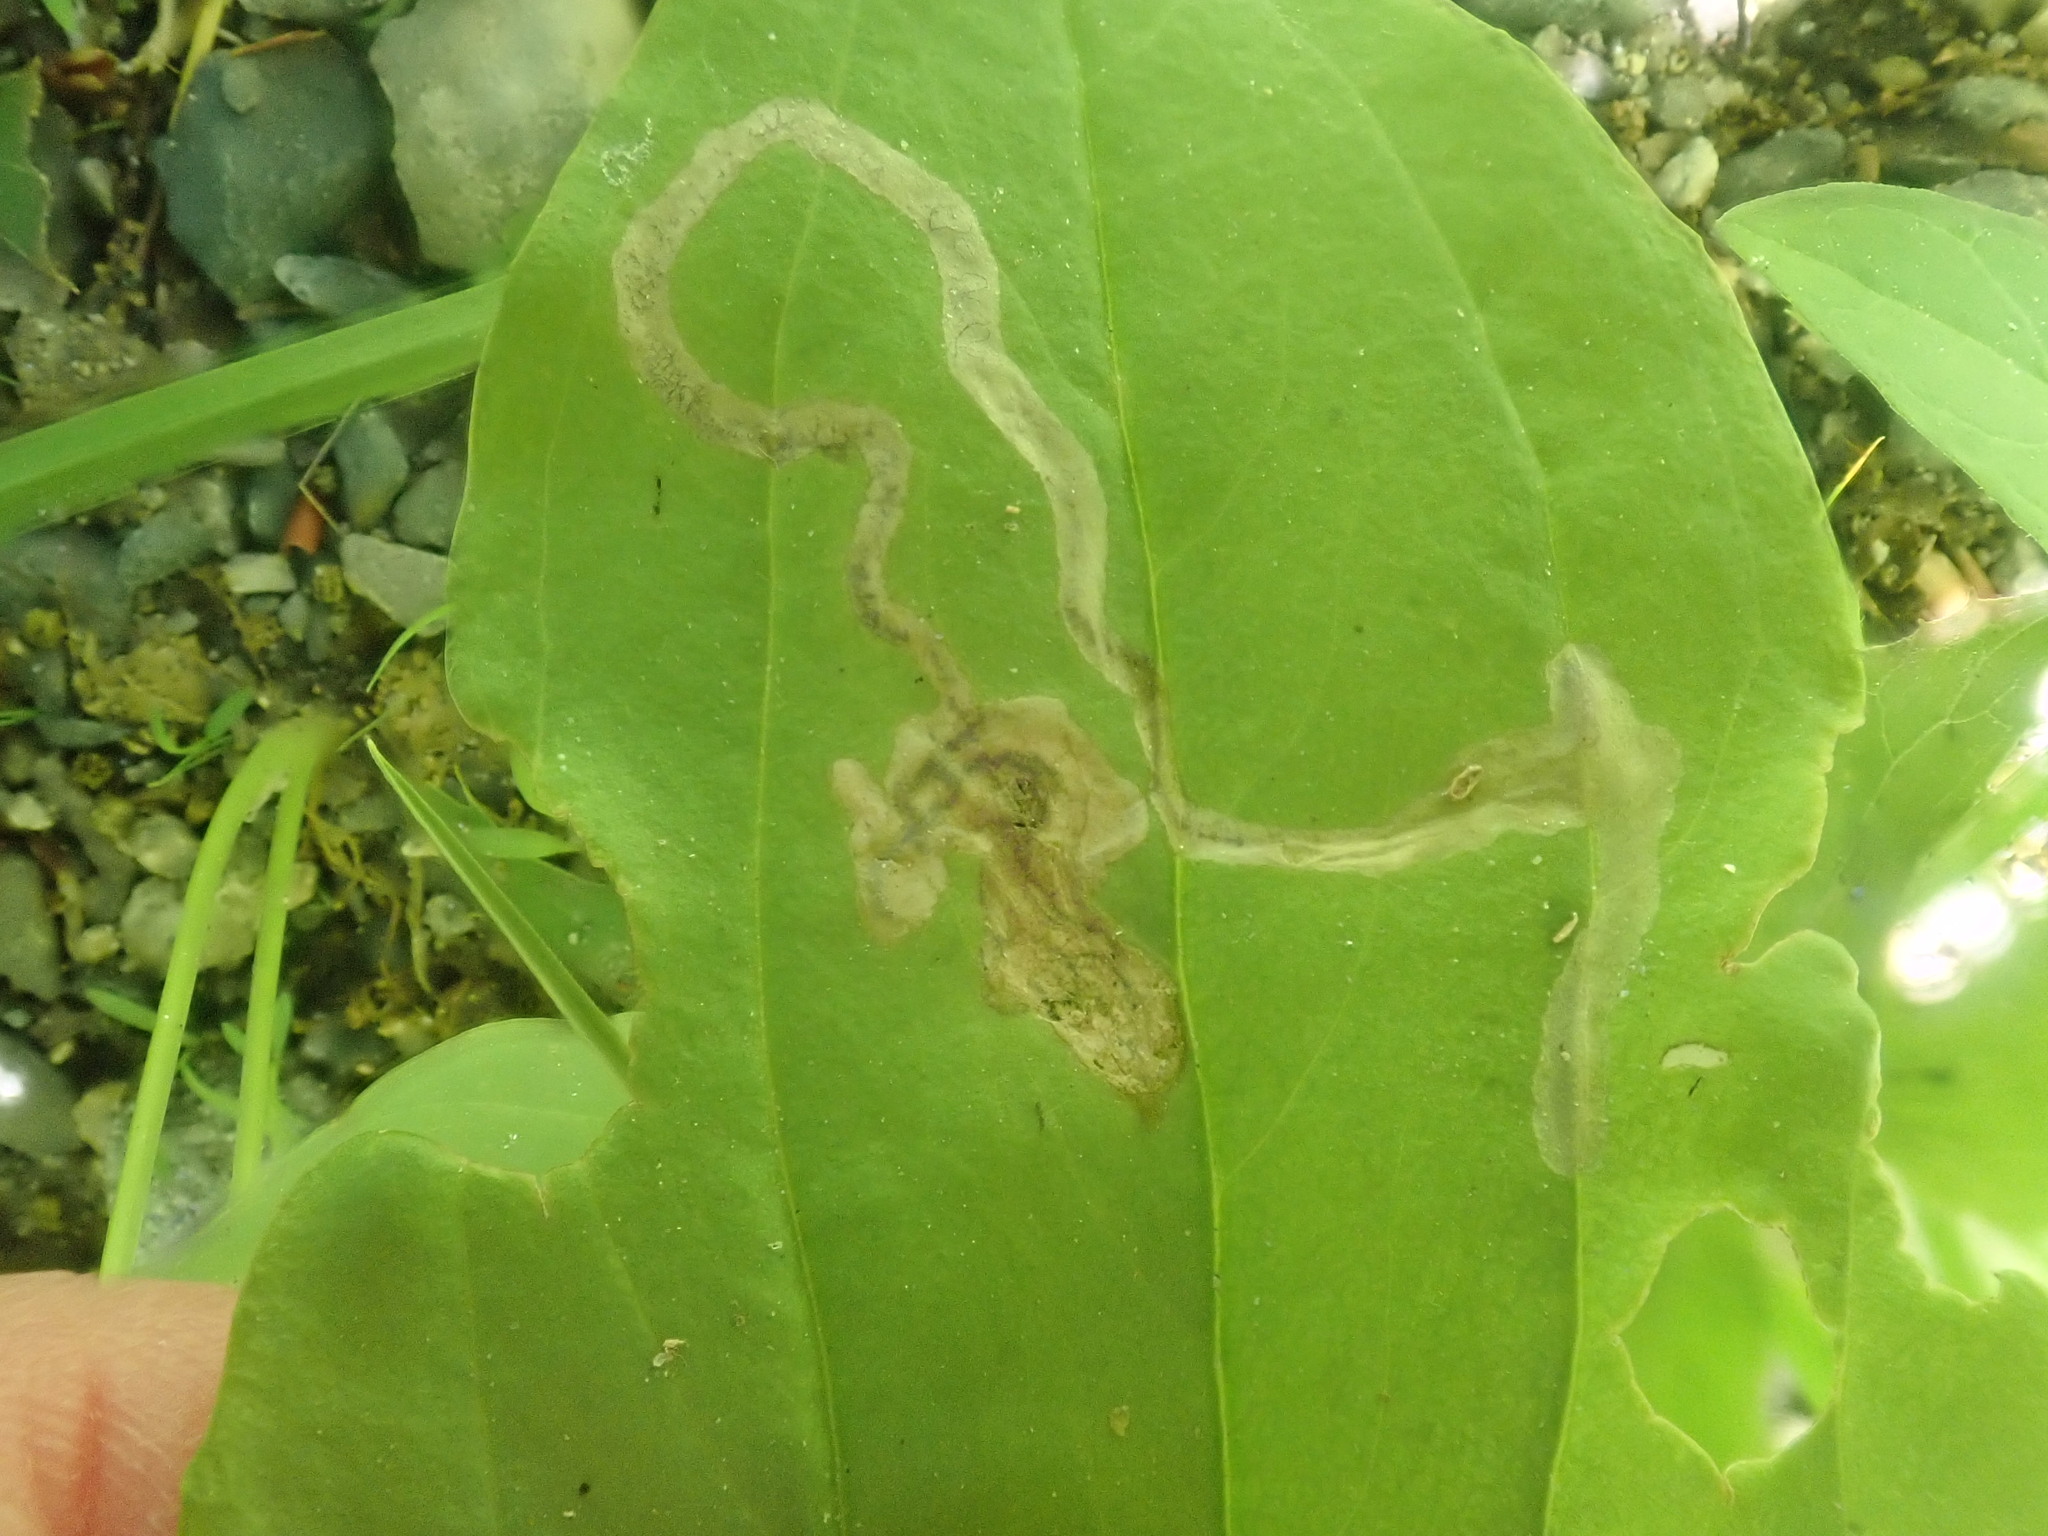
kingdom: Animalia
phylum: Arthropoda
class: Insecta
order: Coleoptera
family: Chrysomelidae
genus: Dibolia
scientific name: Dibolia borealis
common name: Northern plantain flea beetle
